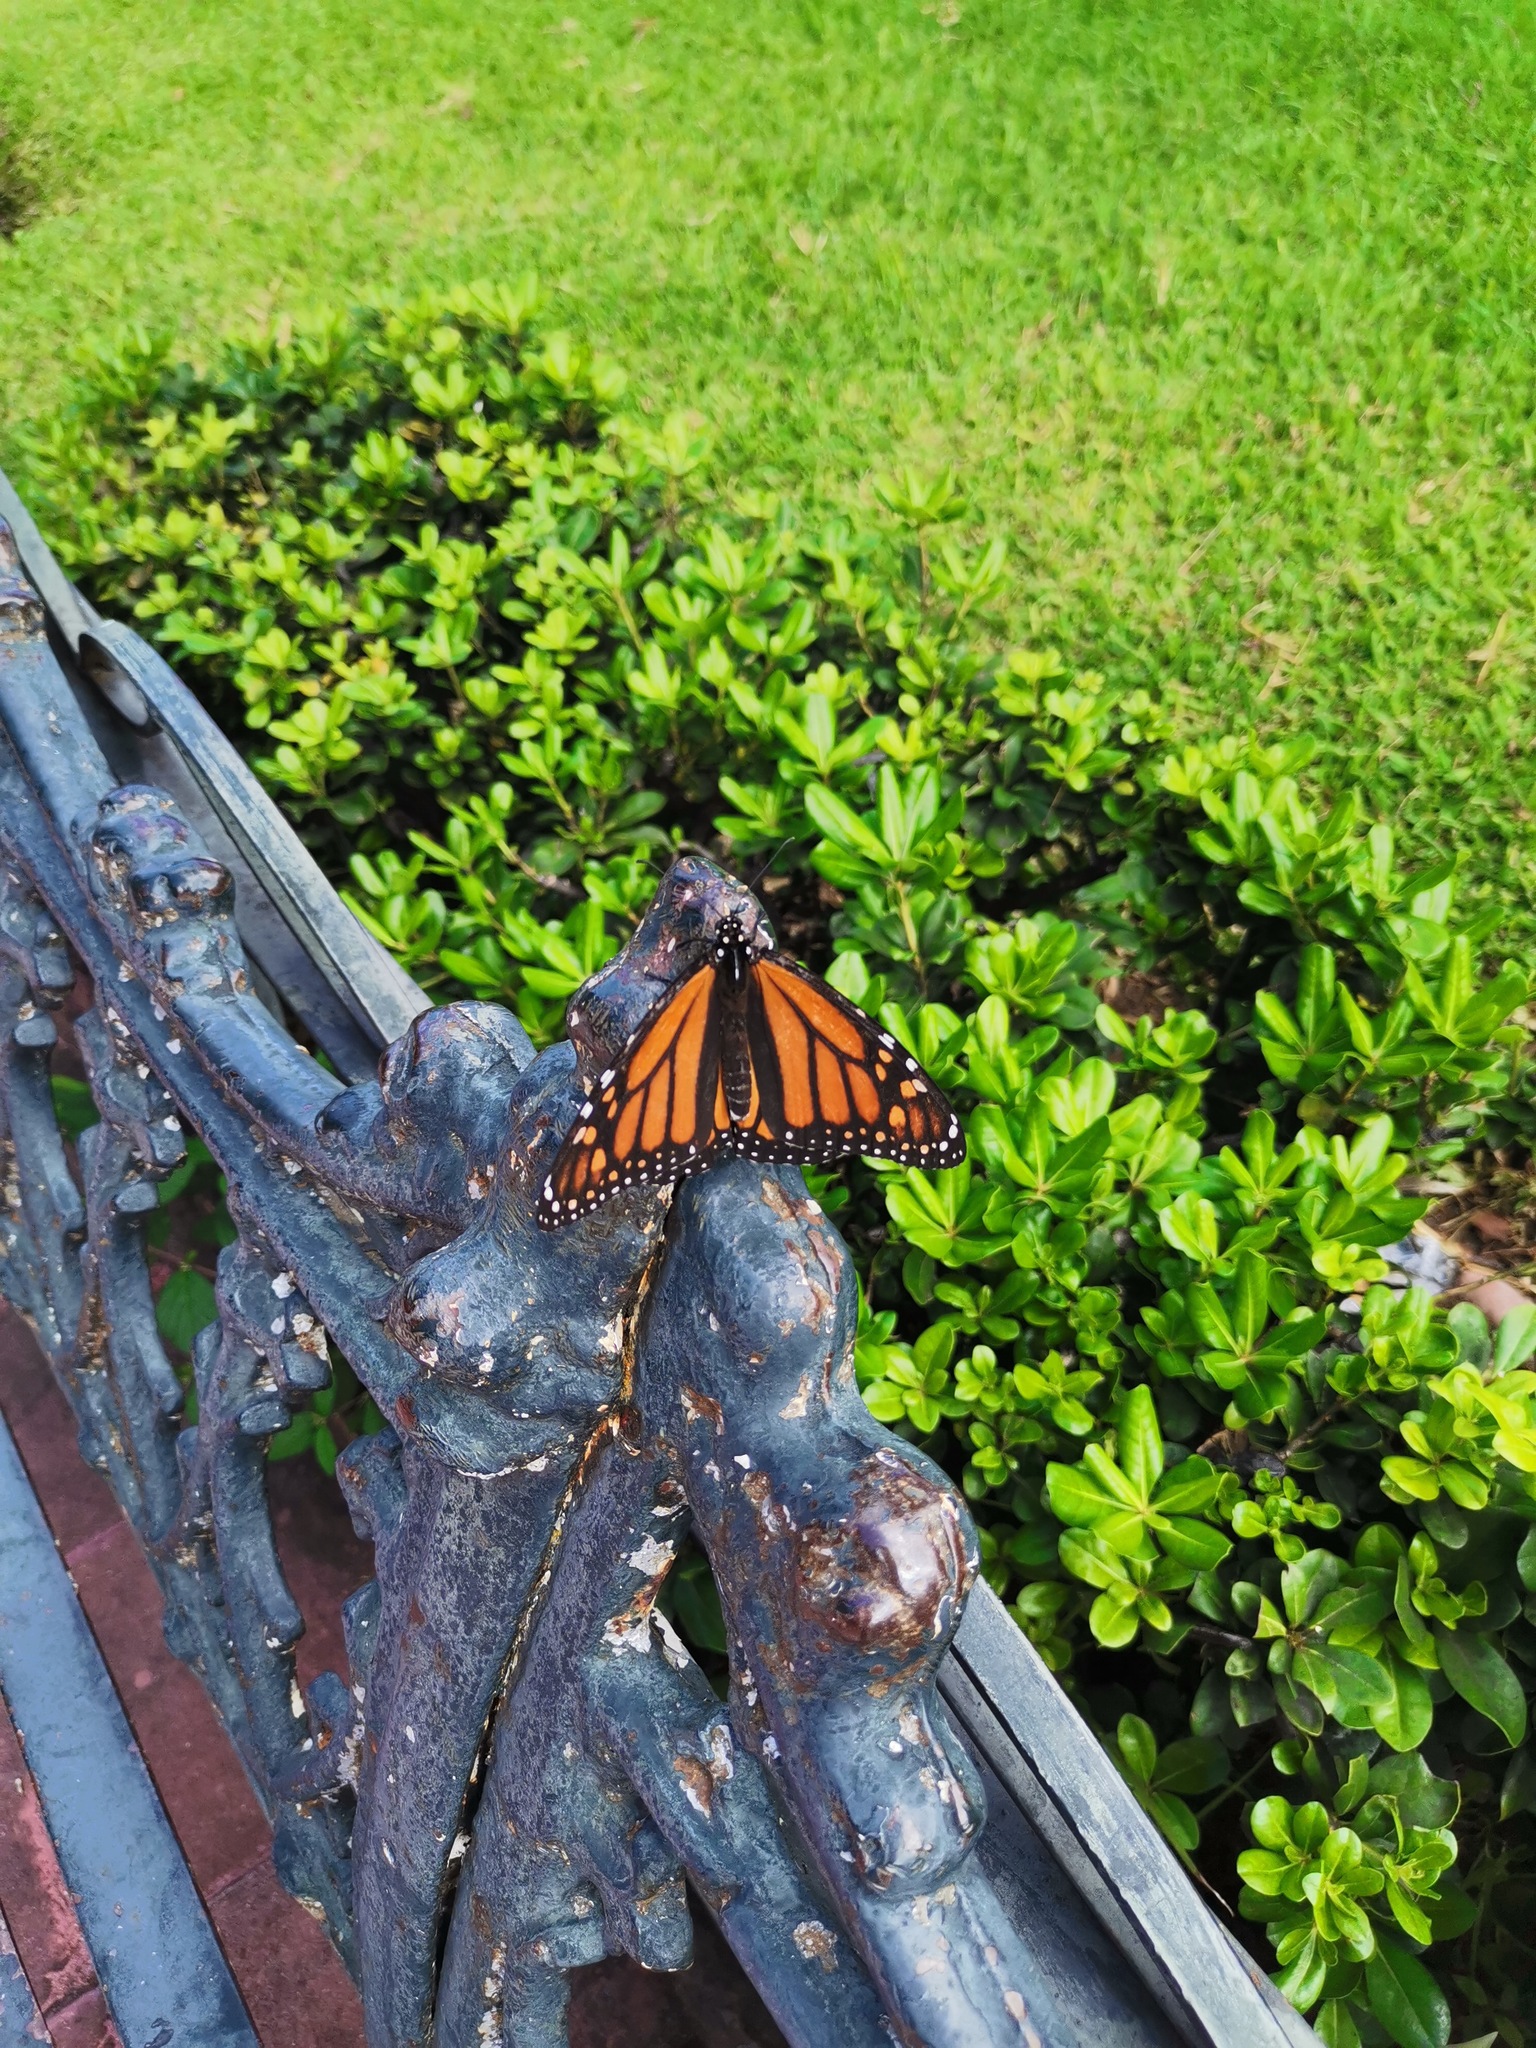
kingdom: Animalia
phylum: Arthropoda
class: Insecta
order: Lepidoptera
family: Nymphalidae
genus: Danaus
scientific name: Danaus plexippus
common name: Monarch
